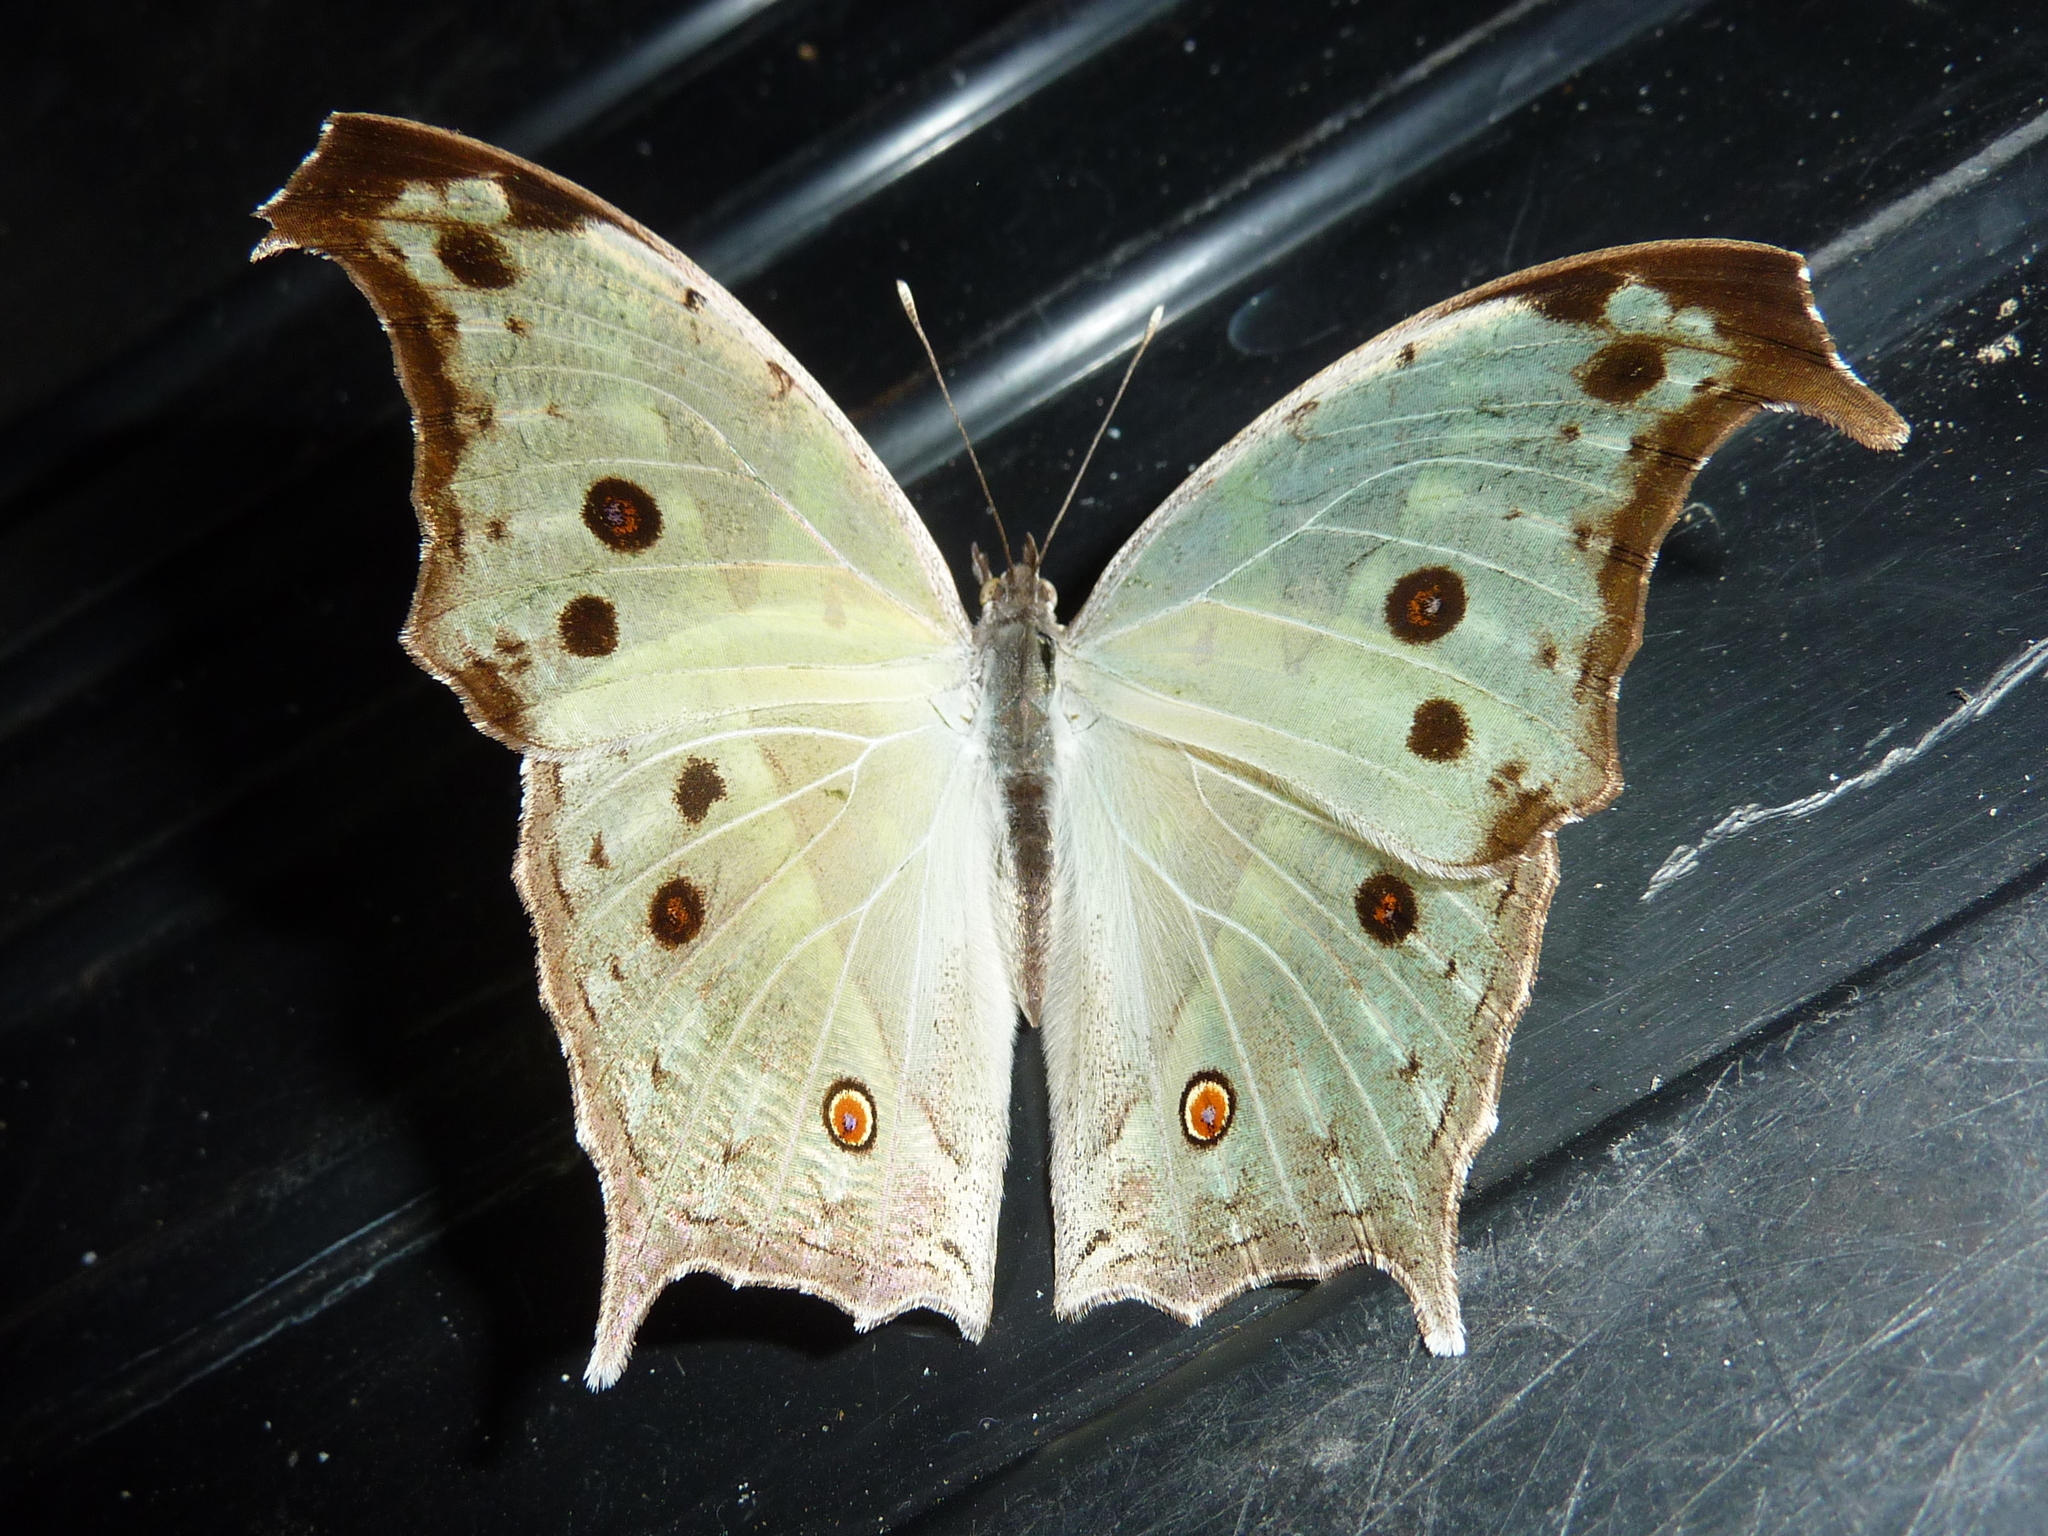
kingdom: Animalia
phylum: Arthropoda
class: Insecta
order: Lepidoptera
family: Nymphalidae
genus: Salamis
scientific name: Salamis Protogoniomorpha parhassus
